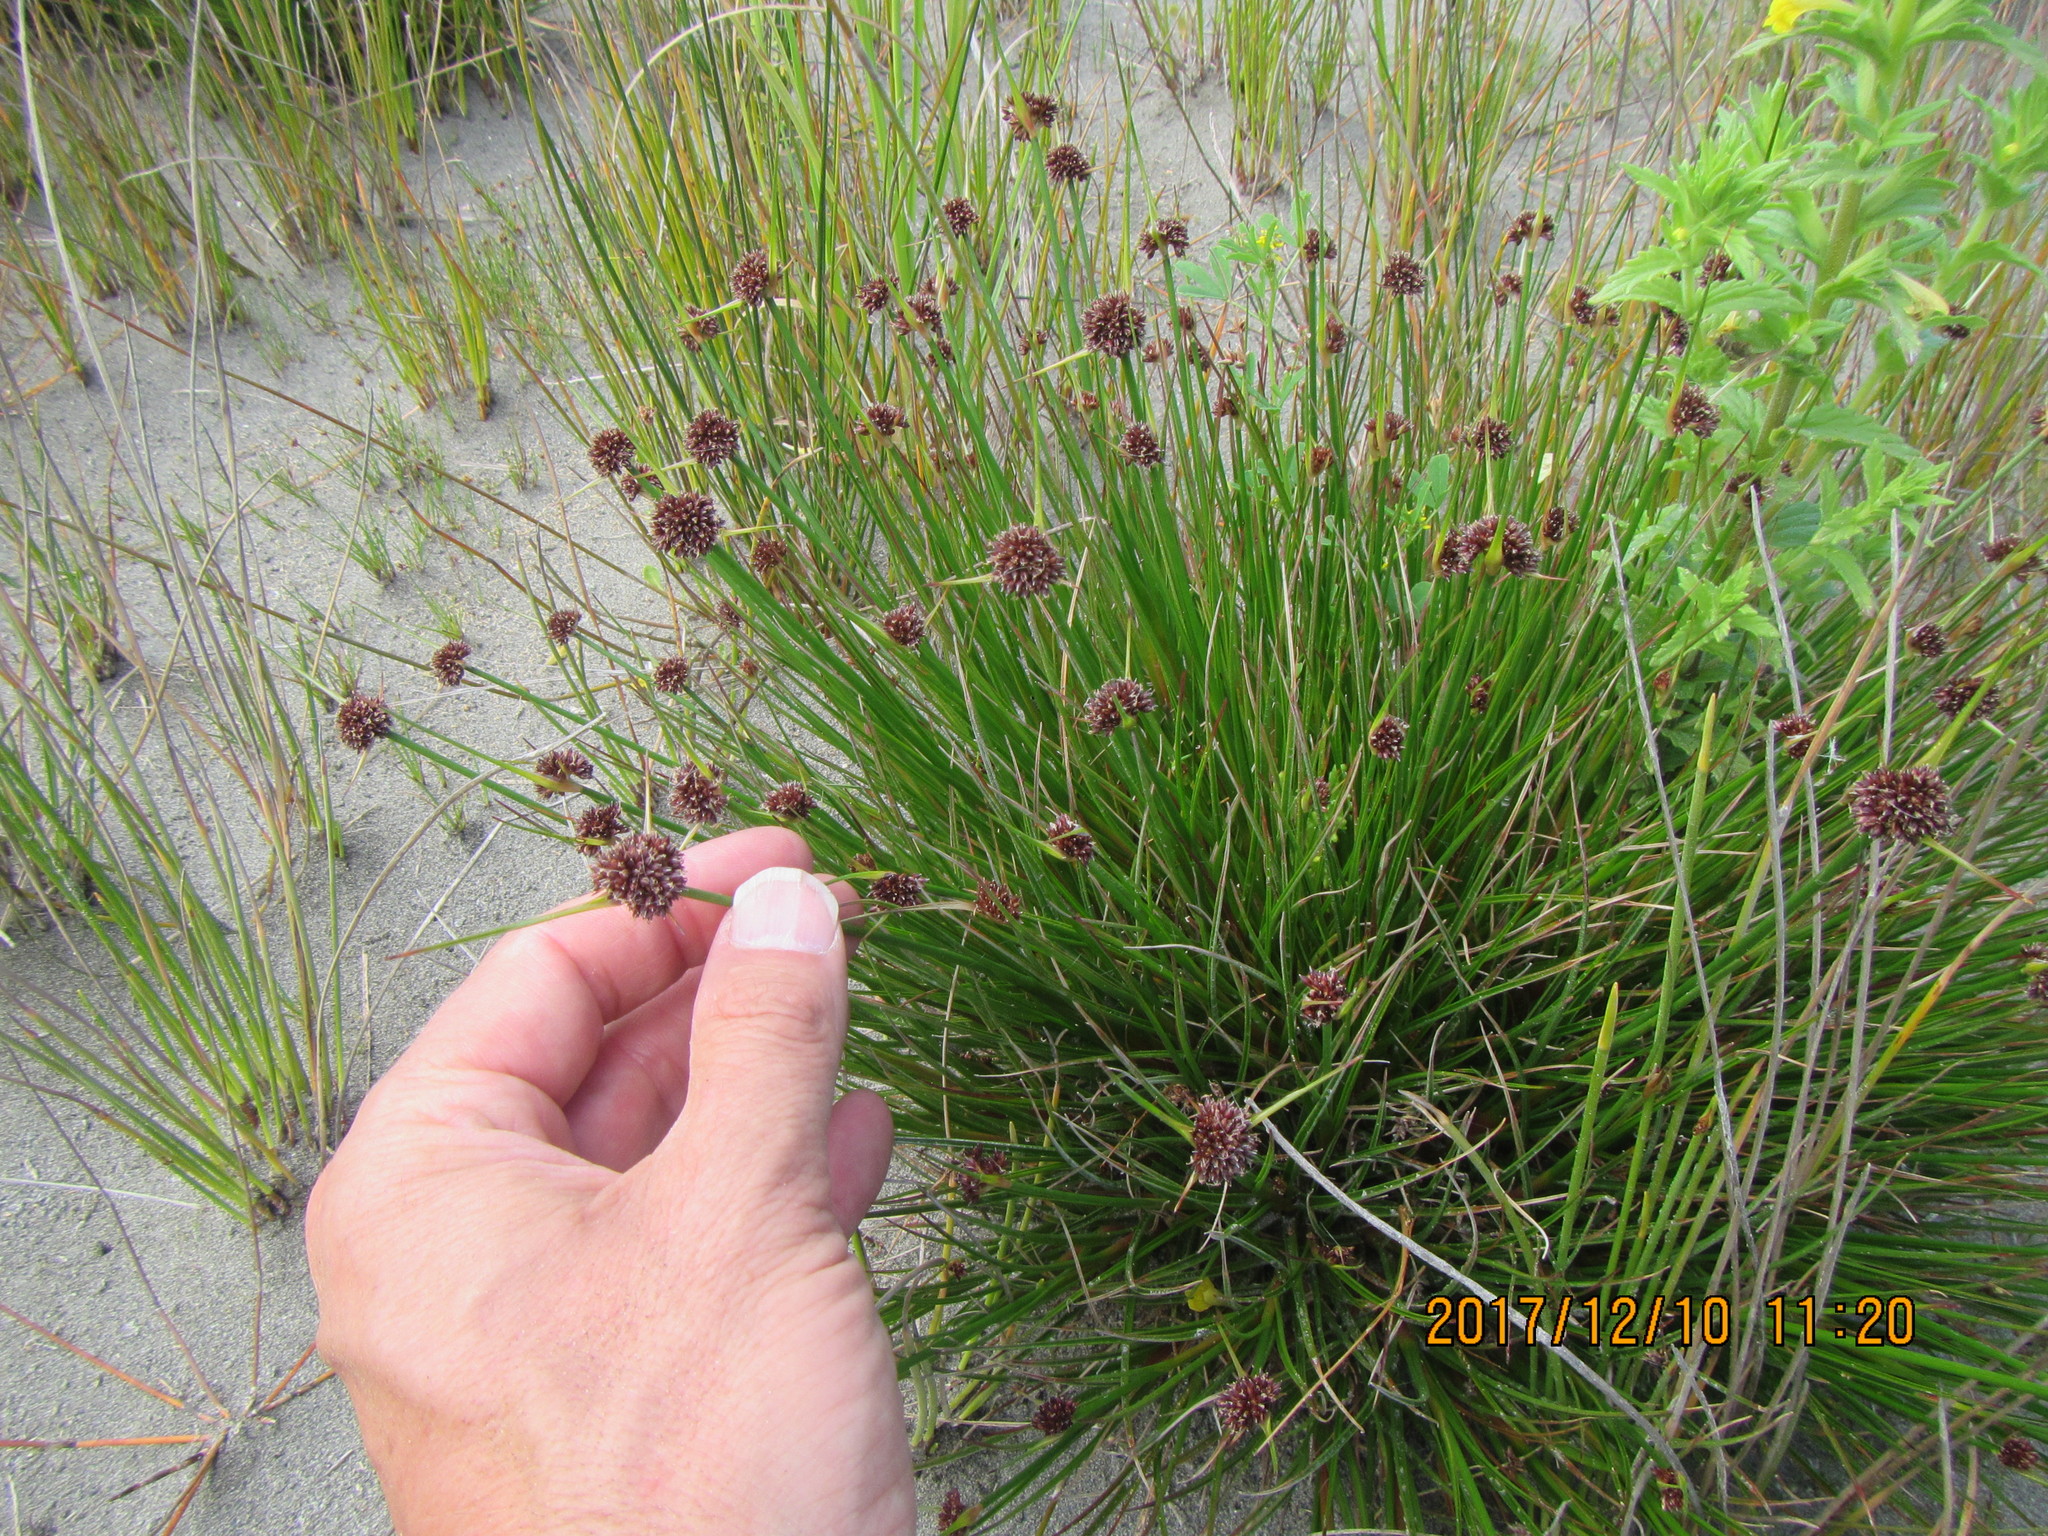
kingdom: Plantae
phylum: Tracheophyta
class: Liliopsida
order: Poales
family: Juncaceae
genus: Juncus
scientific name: Juncus caespiticius
